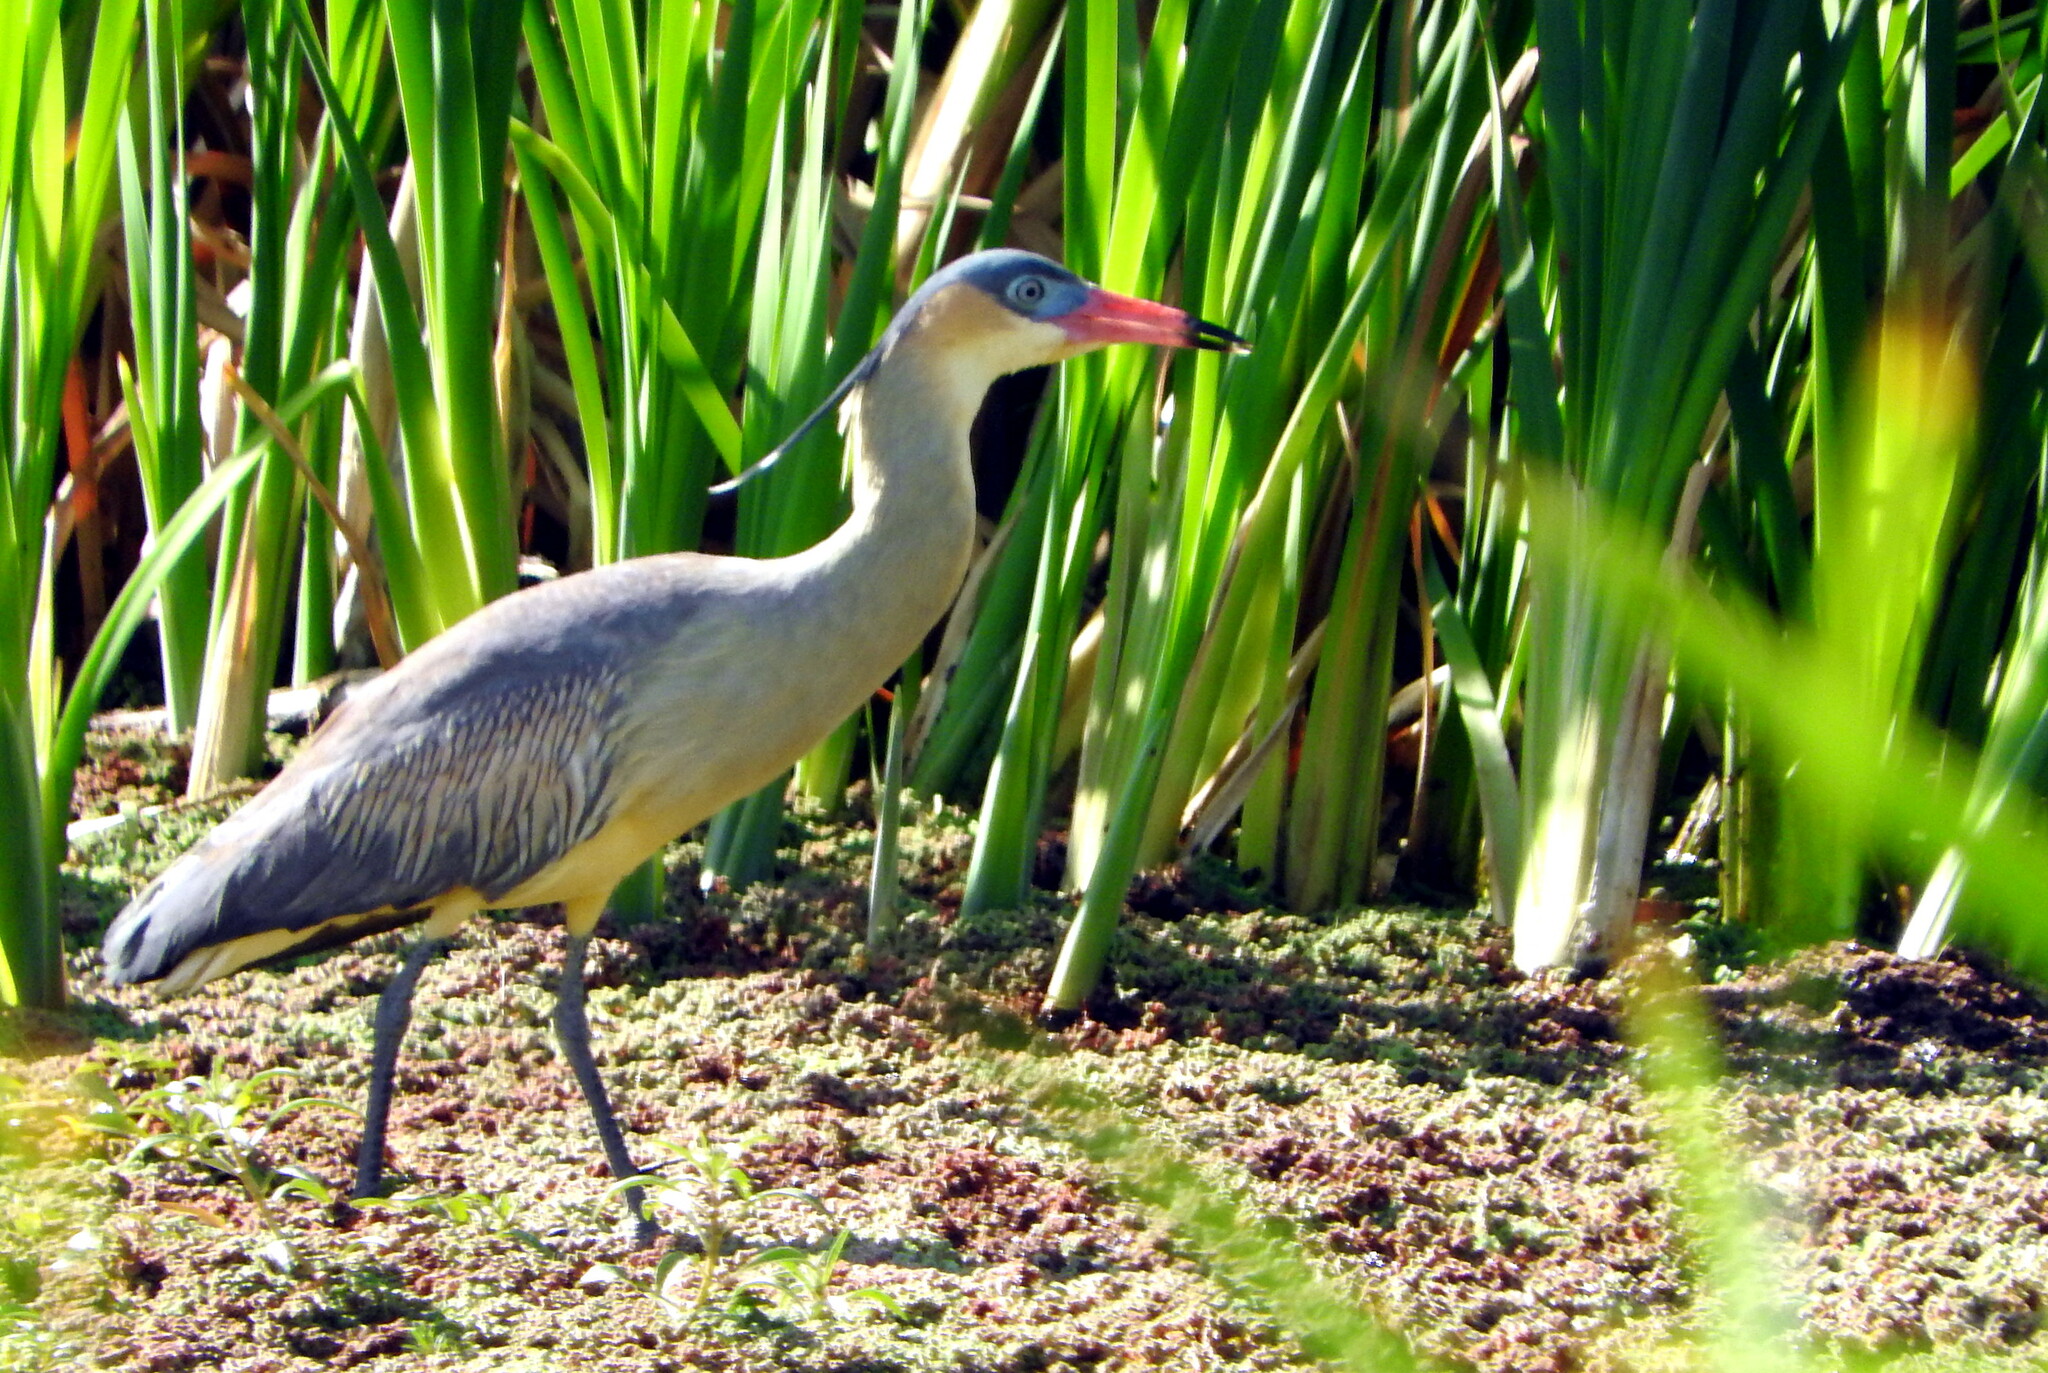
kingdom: Animalia
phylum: Chordata
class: Aves
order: Pelecaniformes
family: Ardeidae
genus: Syrigma
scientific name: Syrigma sibilatrix
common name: Whistling heron
